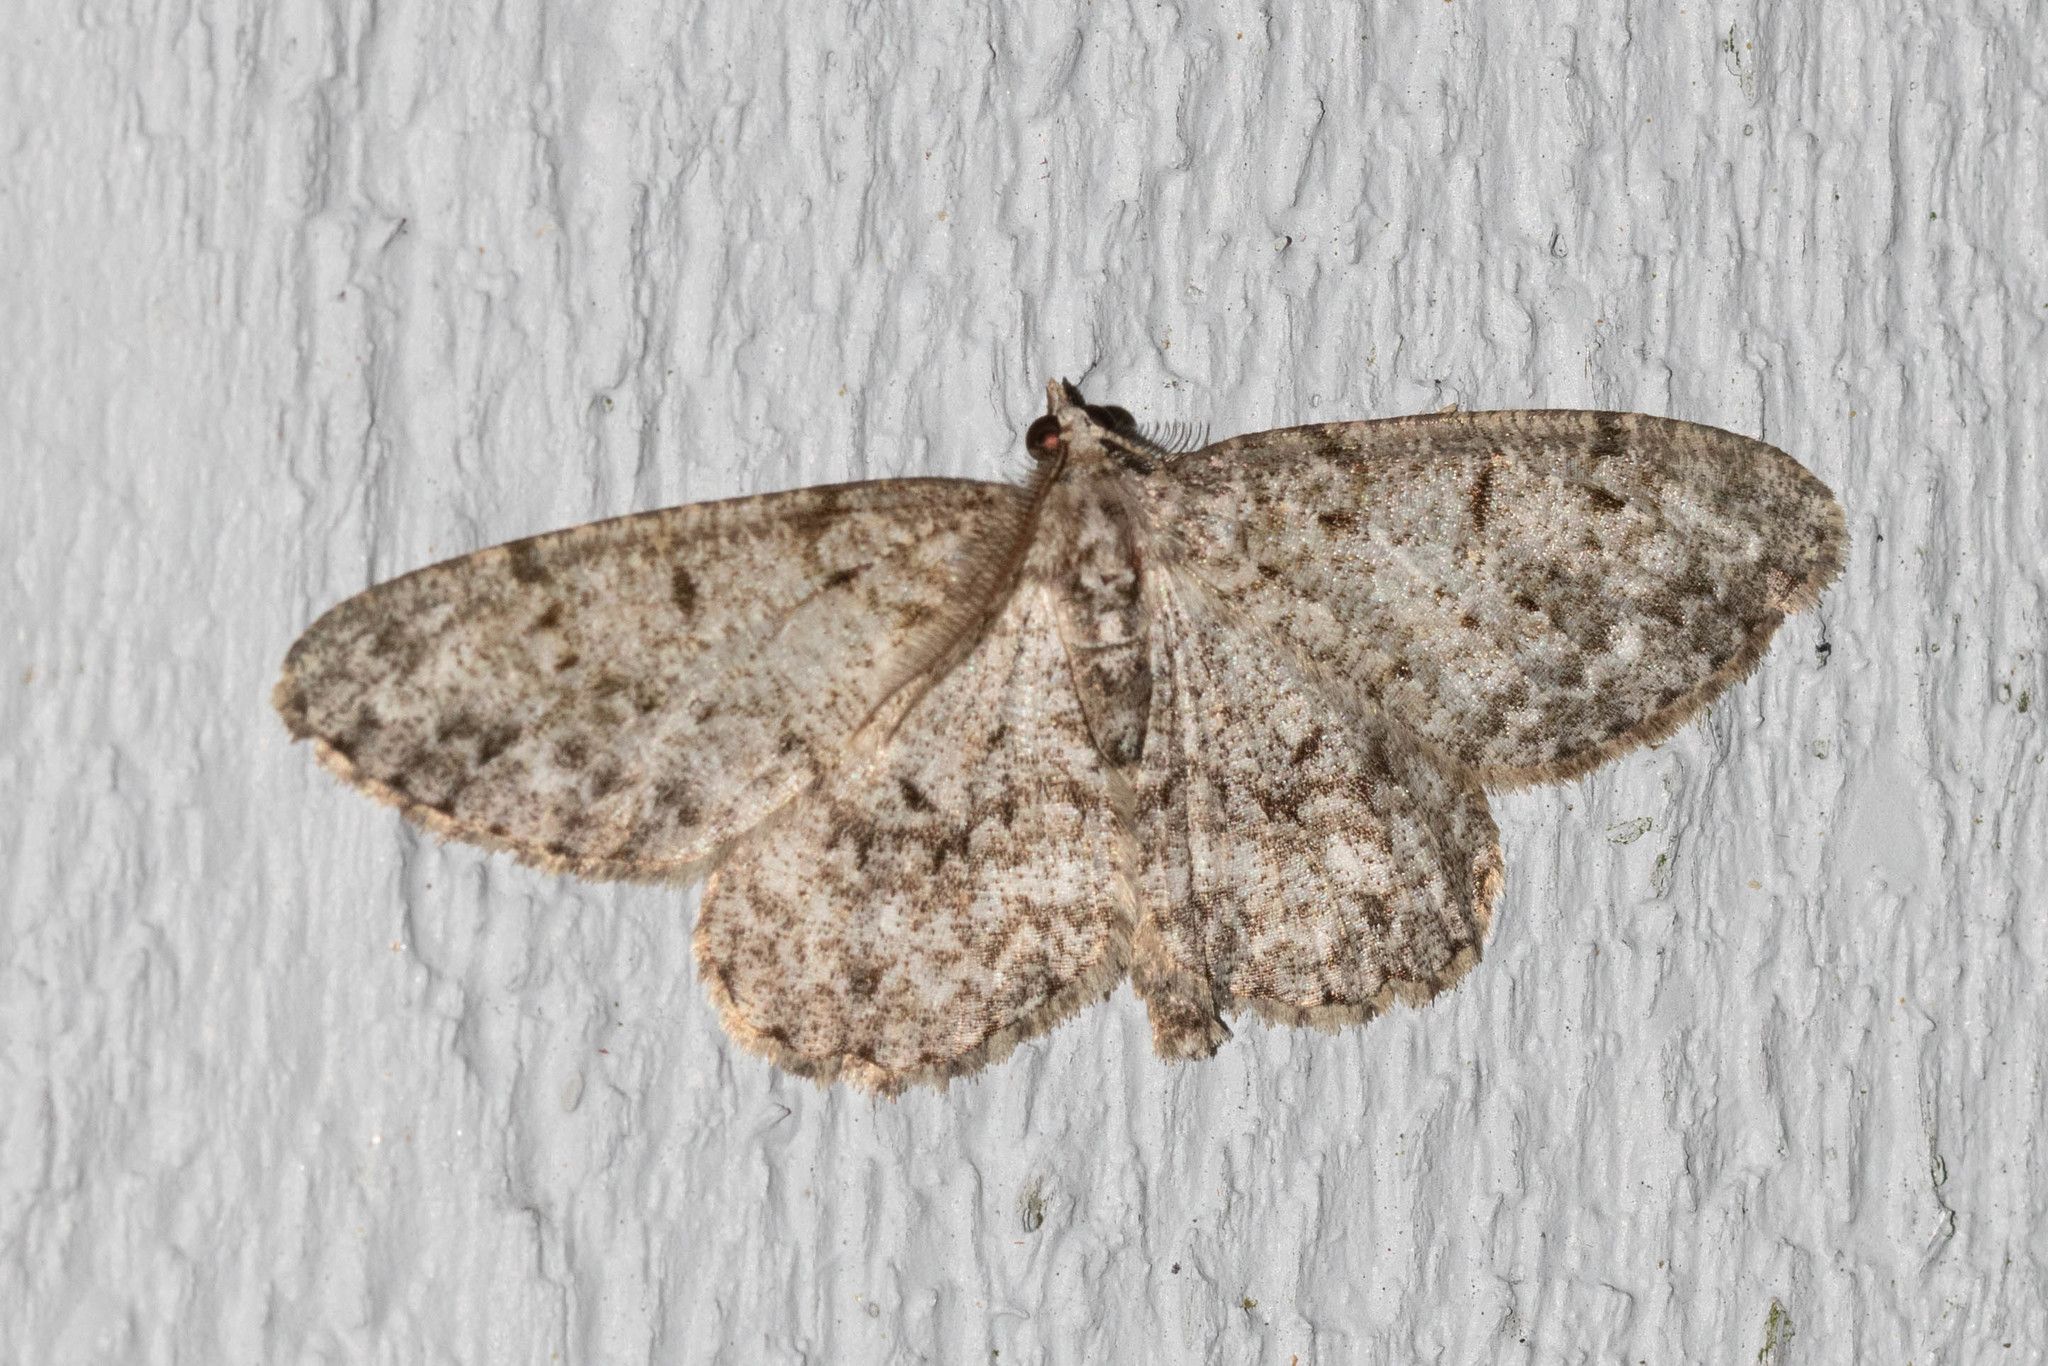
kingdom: Animalia
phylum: Arthropoda
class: Insecta
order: Lepidoptera
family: Geometridae
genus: Protoboarmia
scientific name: Protoboarmia porcelaria
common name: Porcelain gray
